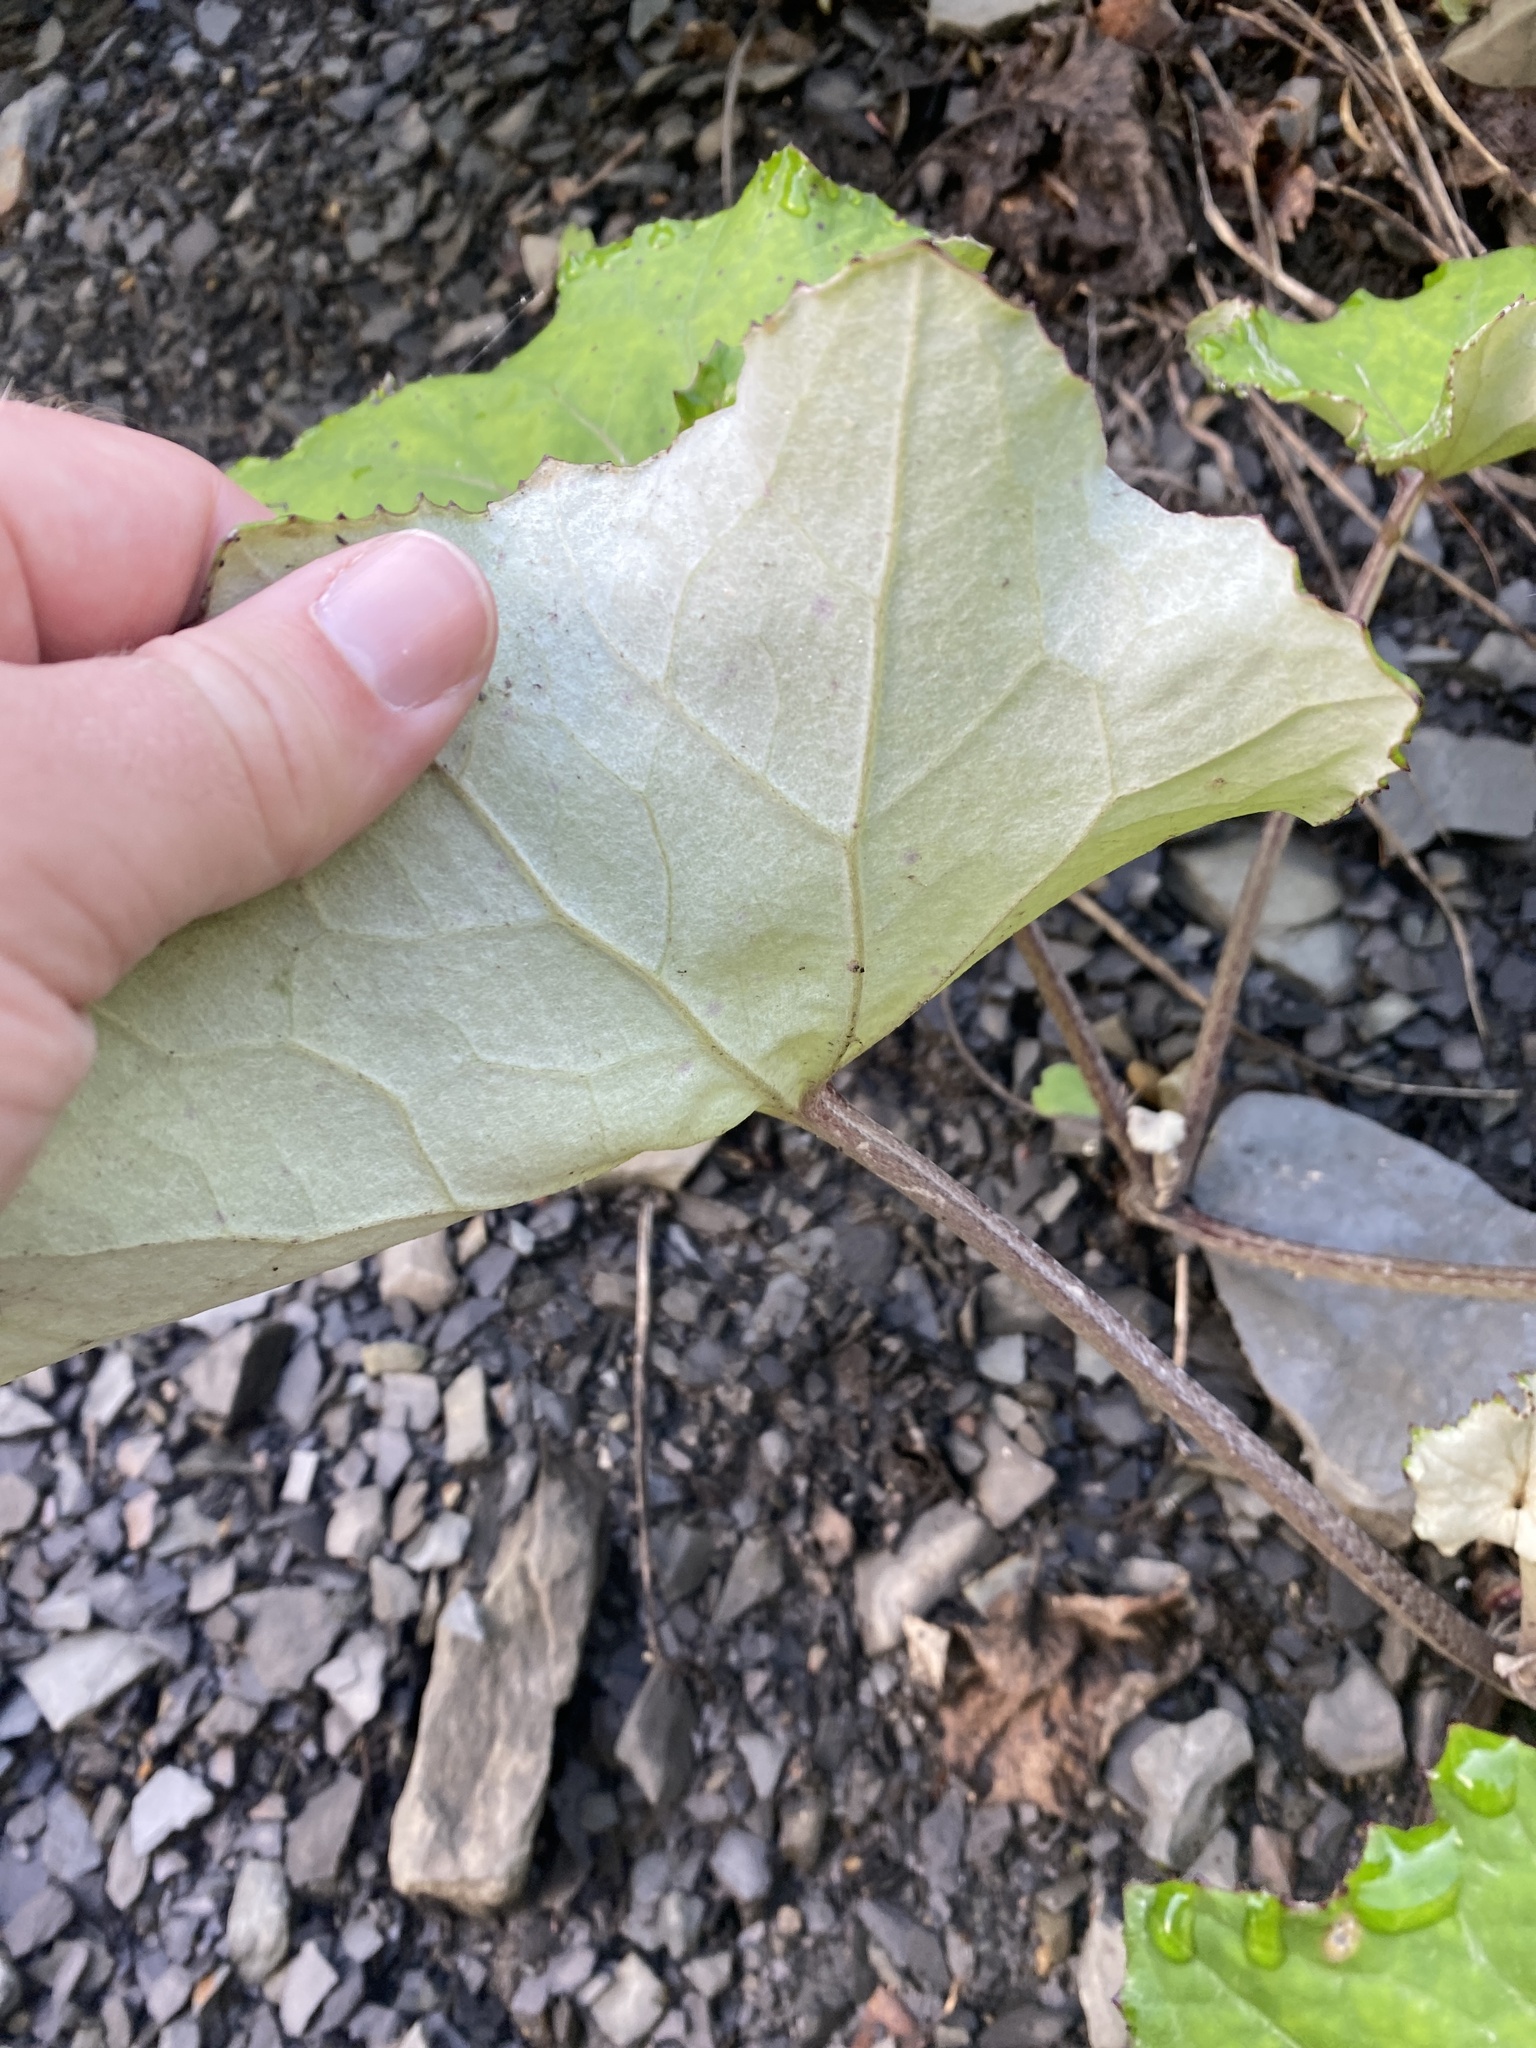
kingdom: Plantae
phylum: Tracheophyta
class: Magnoliopsida
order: Asterales
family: Asteraceae
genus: Tussilago
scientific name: Tussilago farfara
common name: Coltsfoot
